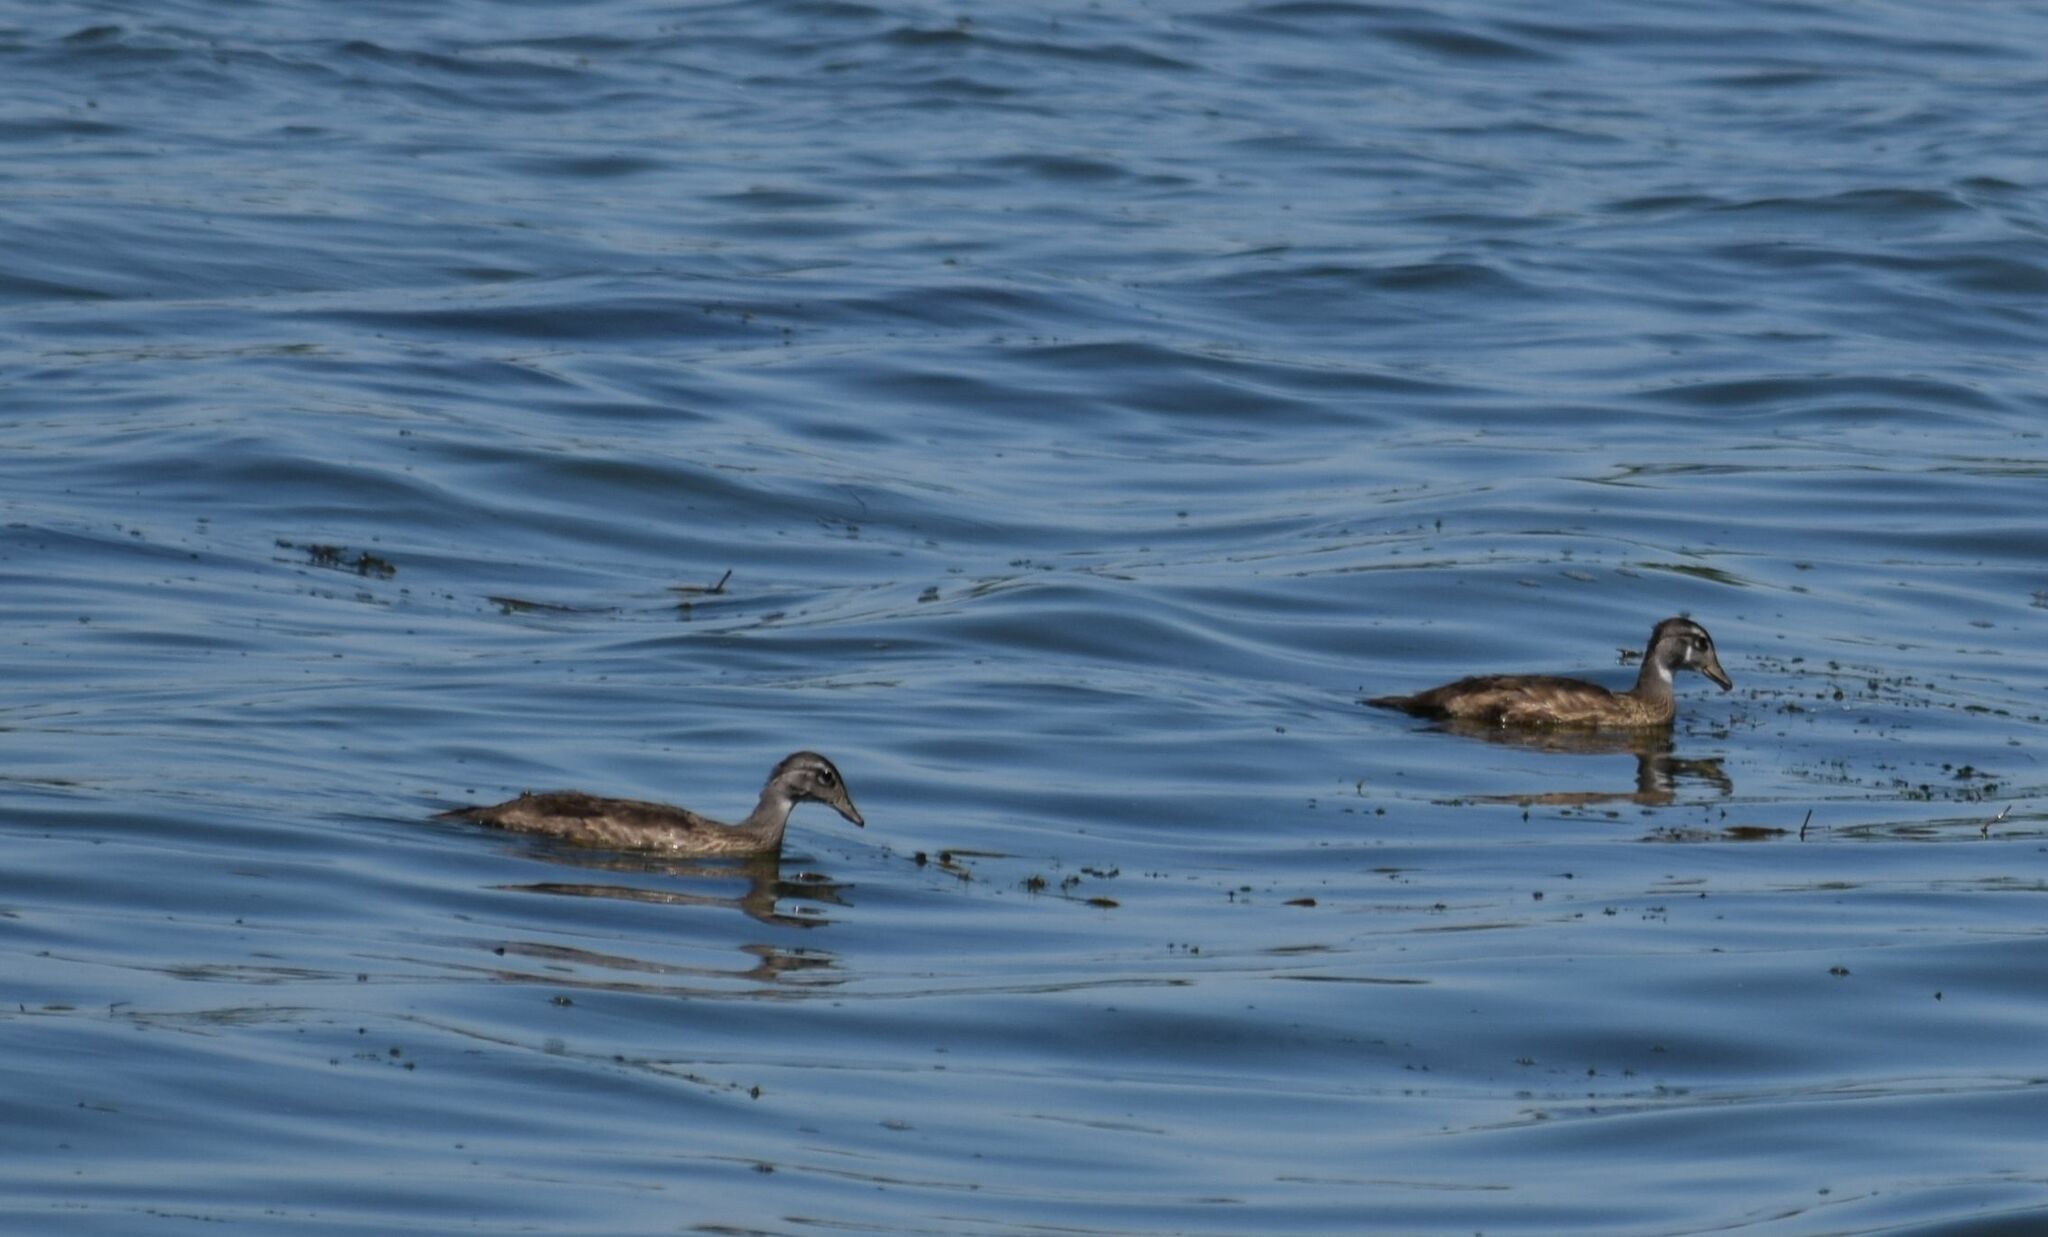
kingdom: Animalia
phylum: Chordata
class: Aves
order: Anseriformes
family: Anatidae
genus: Aix
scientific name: Aix sponsa
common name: Wood duck
